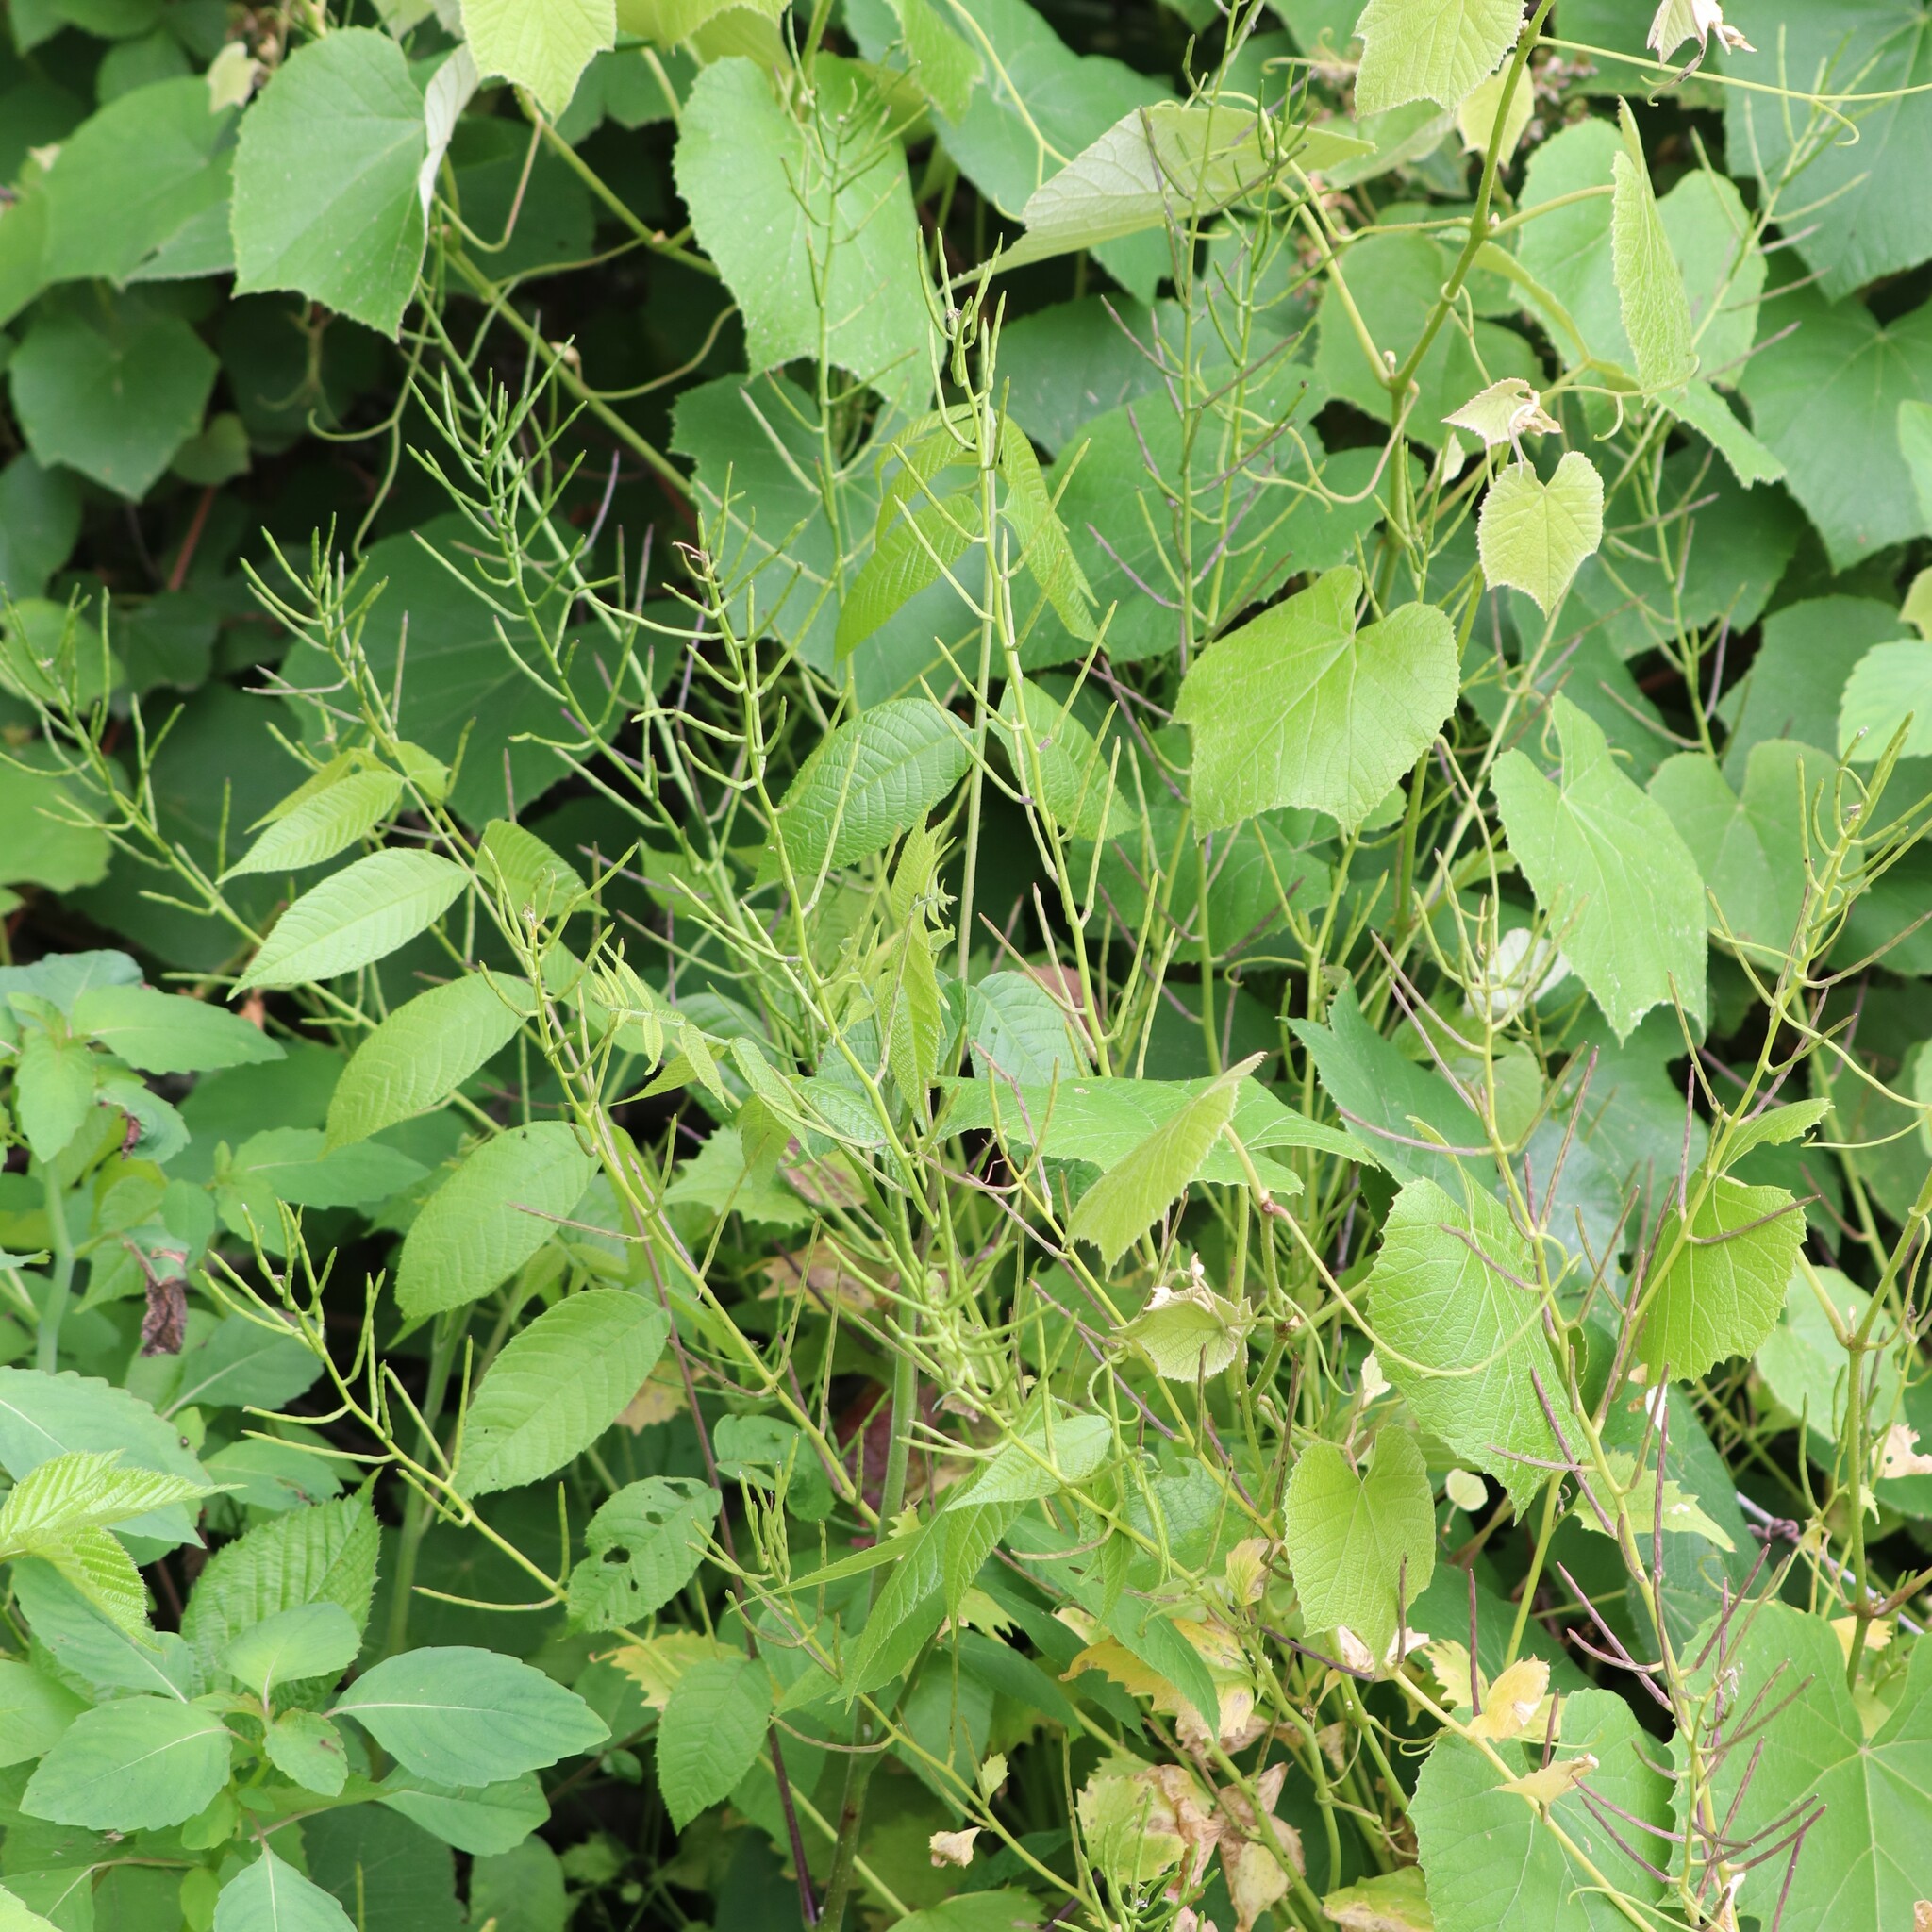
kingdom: Plantae
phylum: Tracheophyta
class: Magnoliopsida
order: Brassicales
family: Brassicaceae
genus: Alliaria
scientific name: Alliaria petiolata
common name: Garlic mustard
